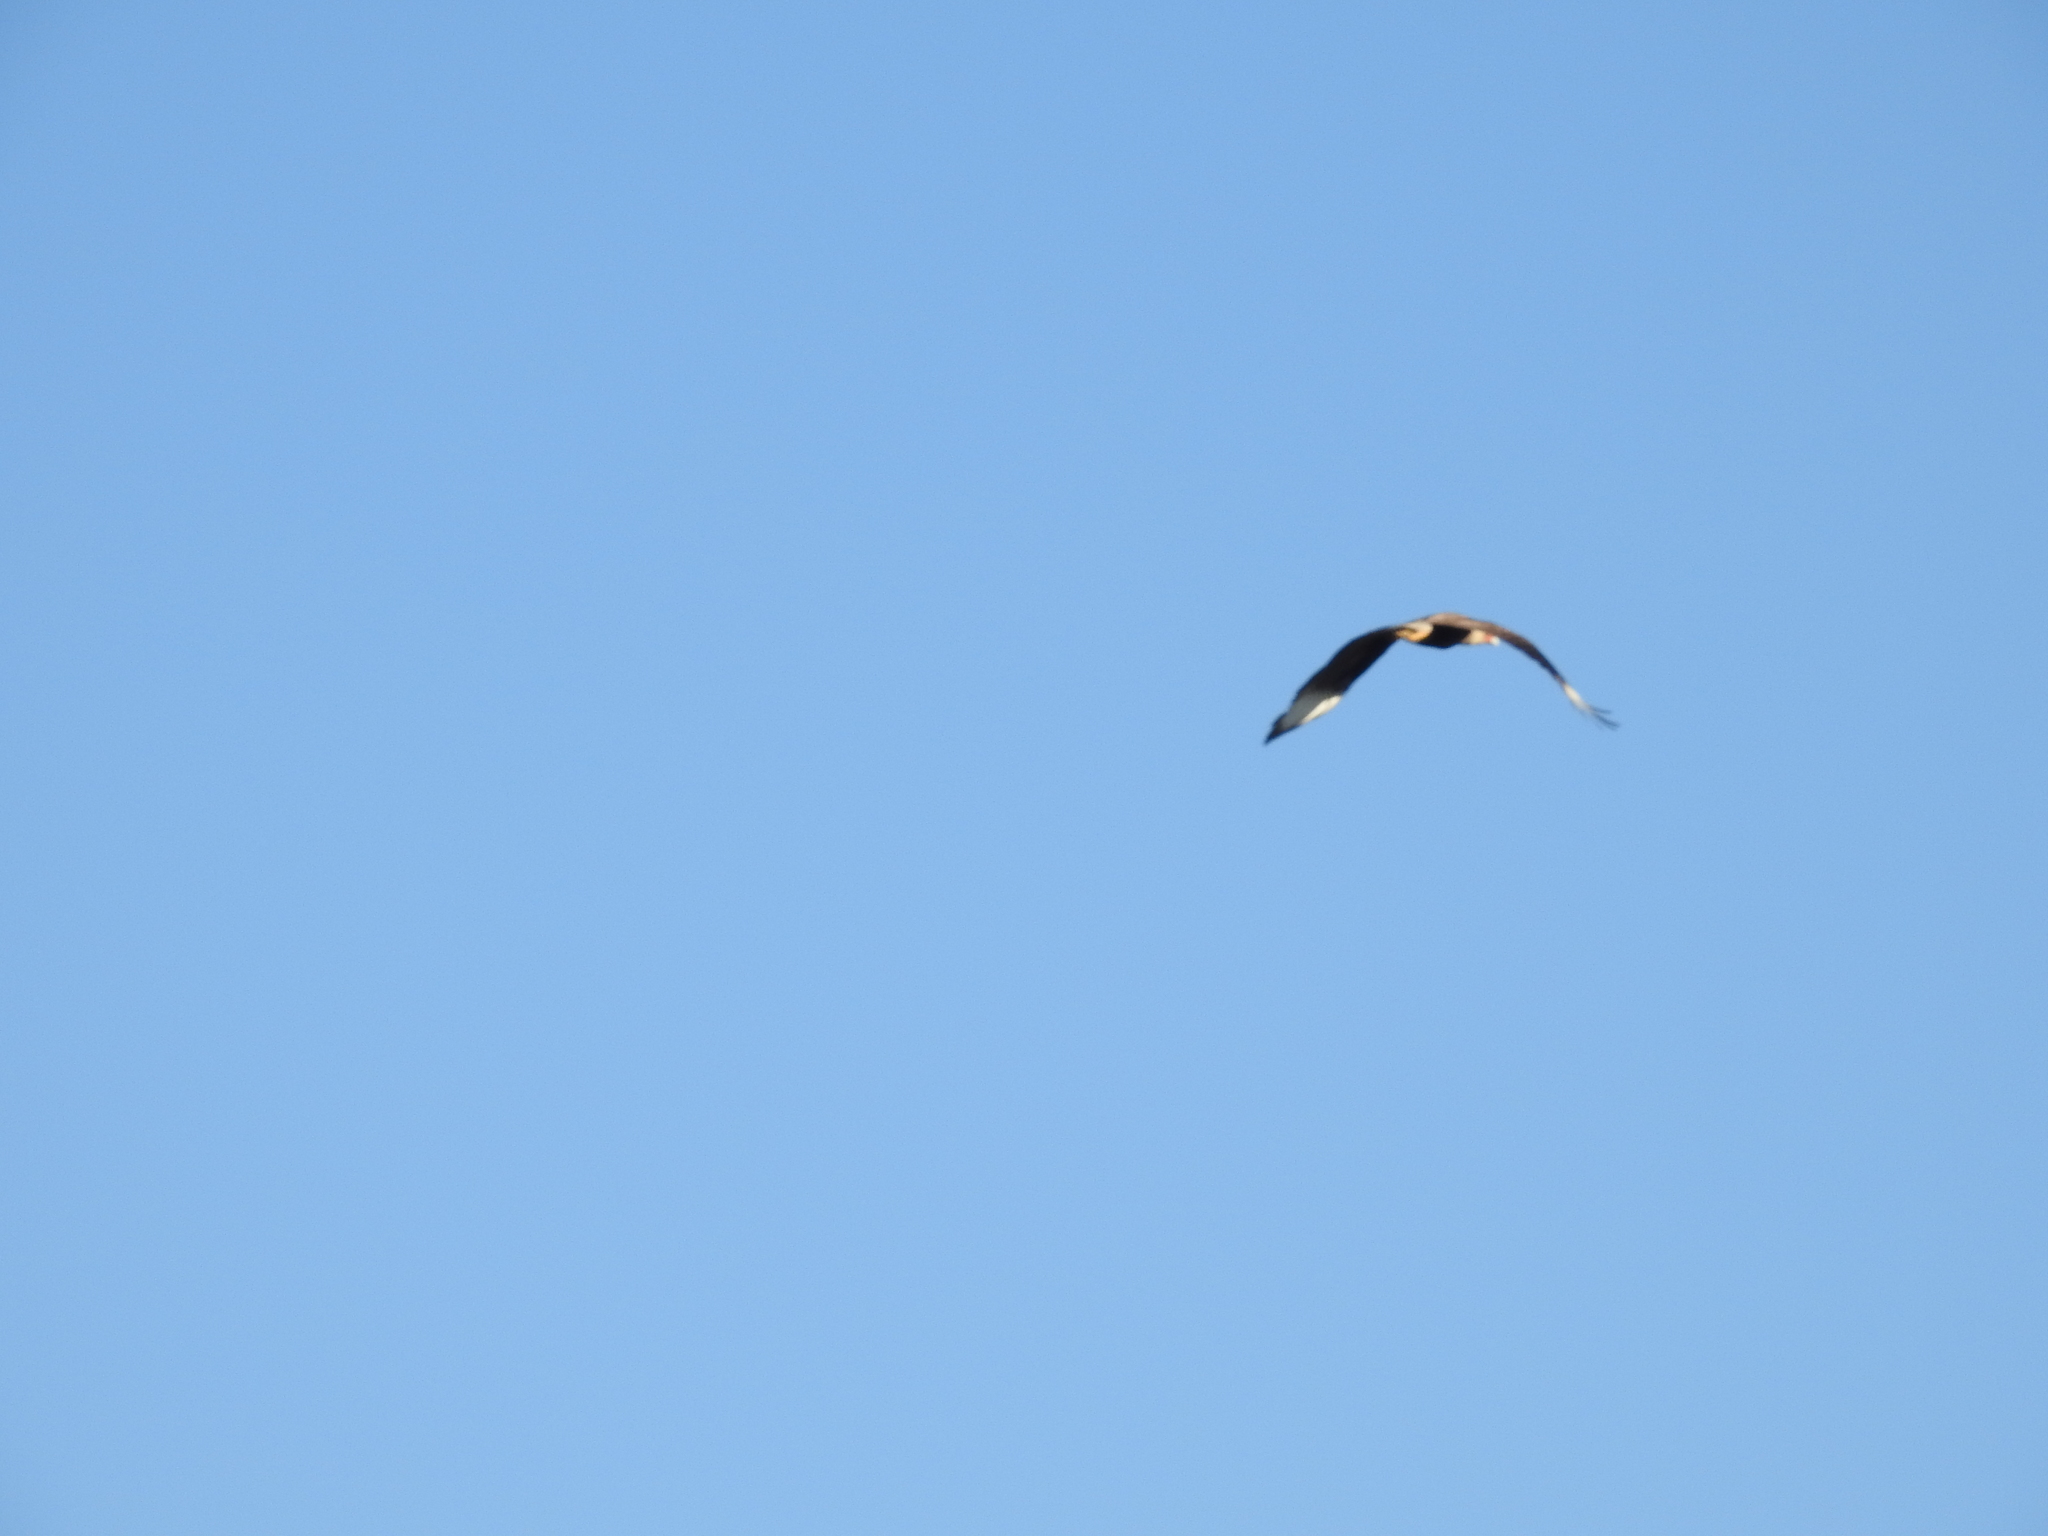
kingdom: Animalia
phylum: Chordata
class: Aves
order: Falconiformes
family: Falconidae
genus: Caracara
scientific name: Caracara plancus
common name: Southern caracara
